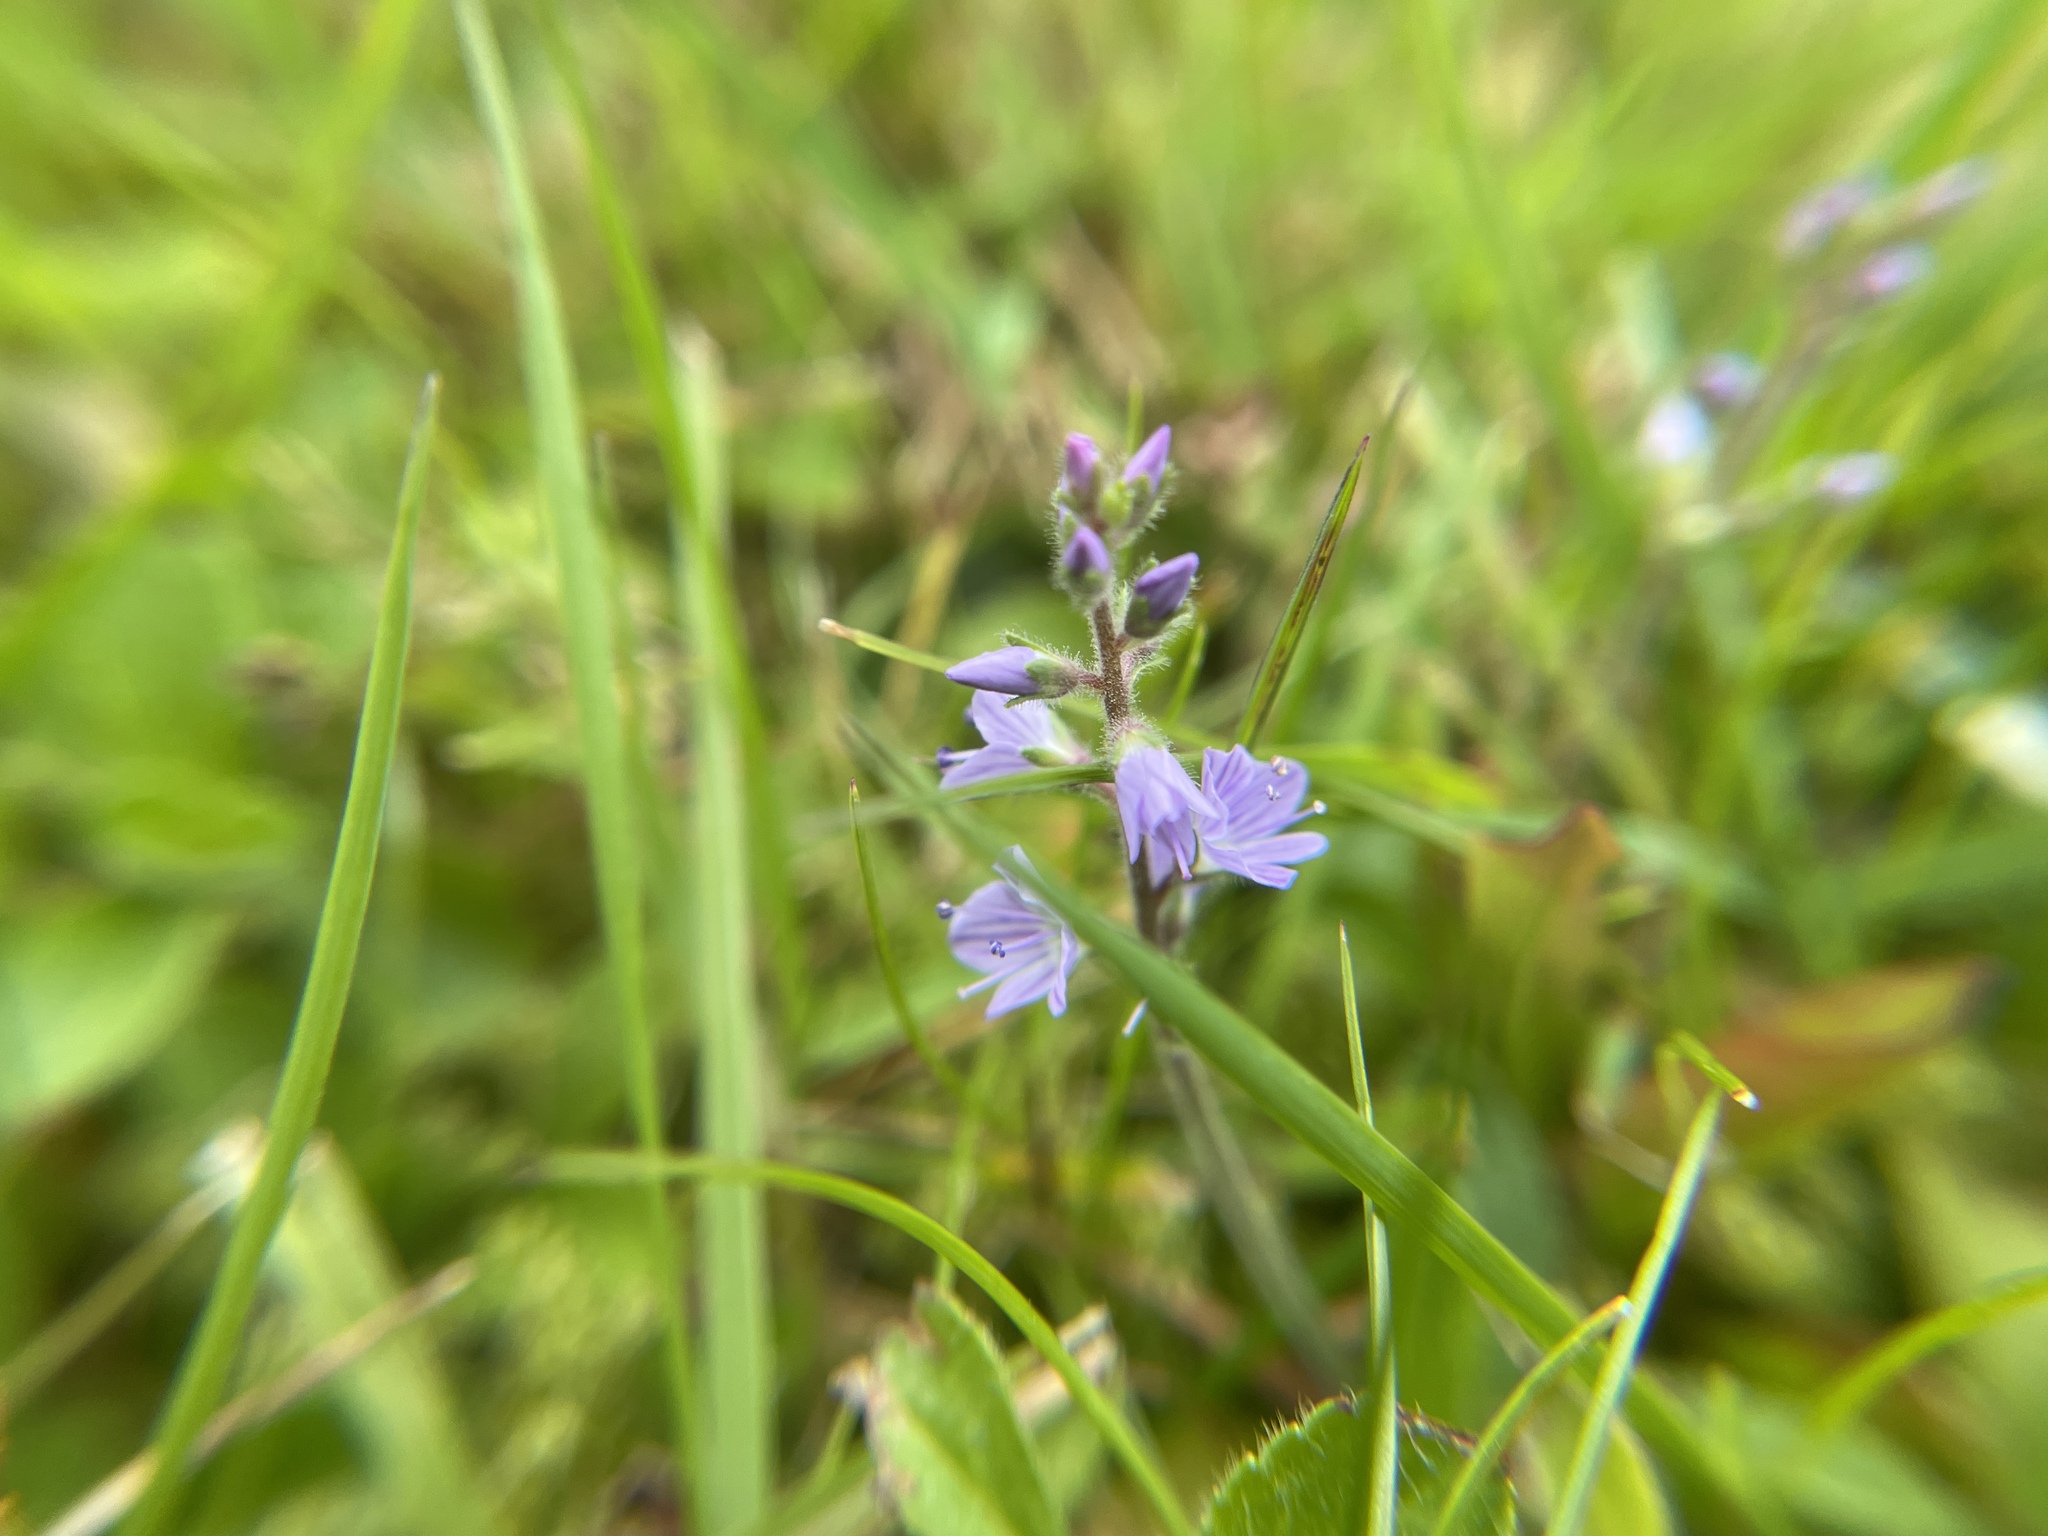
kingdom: Plantae
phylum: Tracheophyta
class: Magnoliopsida
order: Lamiales
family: Plantaginaceae
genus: Veronica
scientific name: Veronica officinalis
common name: Common speedwell
